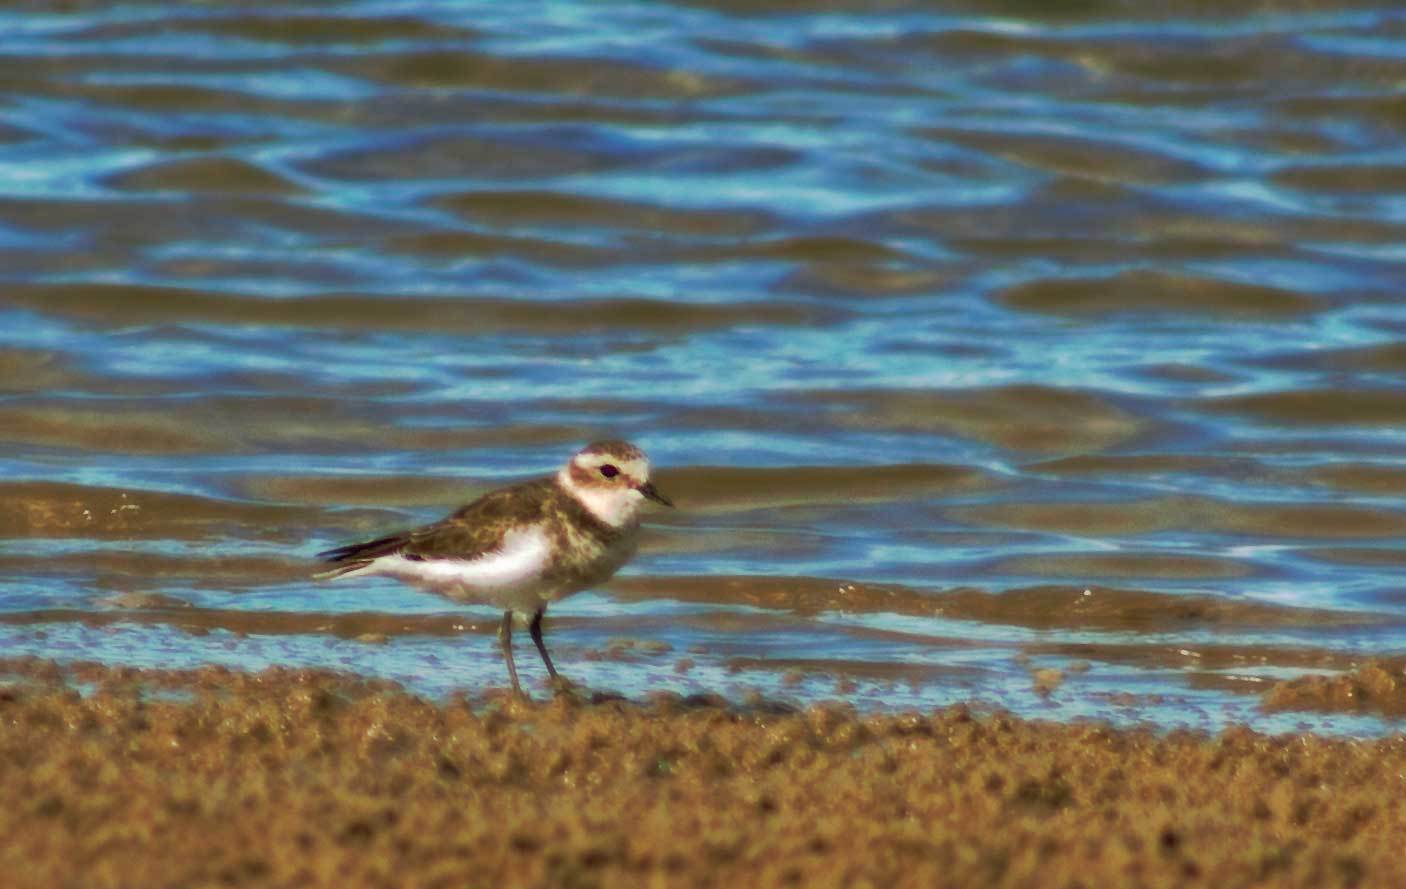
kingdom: Animalia
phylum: Chordata
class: Aves
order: Charadriiformes
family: Charadriidae
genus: Anarhynchus
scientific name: Anarhynchus
